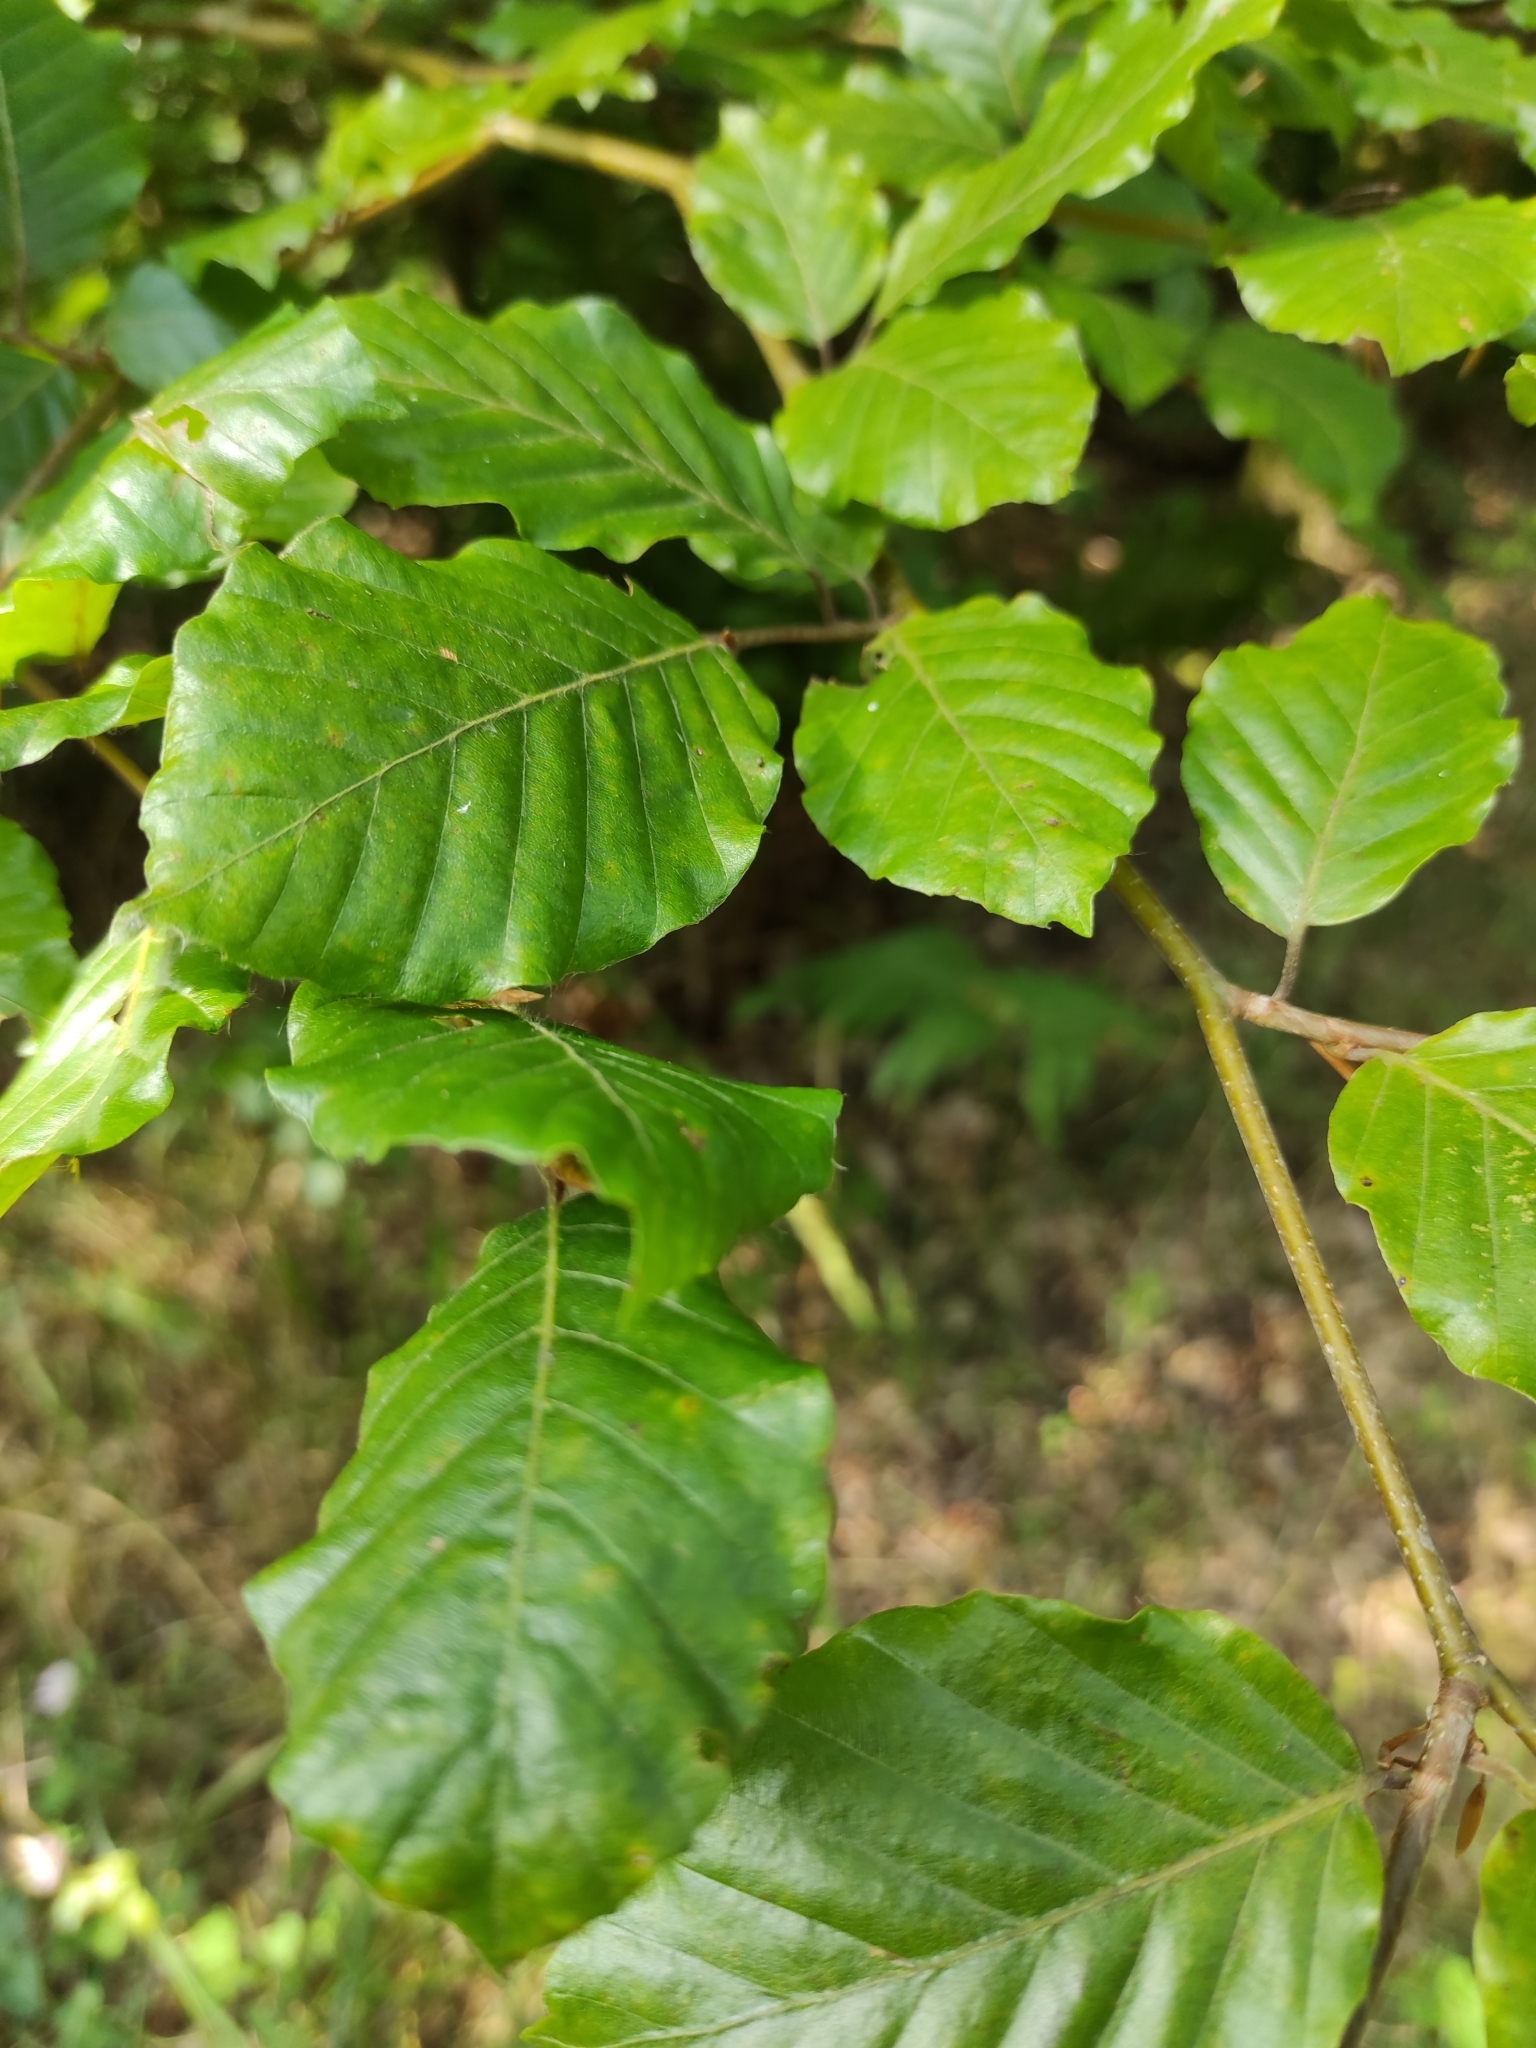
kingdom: Plantae
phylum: Tracheophyta
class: Magnoliopsida
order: Fagales
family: Fagaceae
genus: Fagus
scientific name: Fagus sylvatica
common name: Beech
